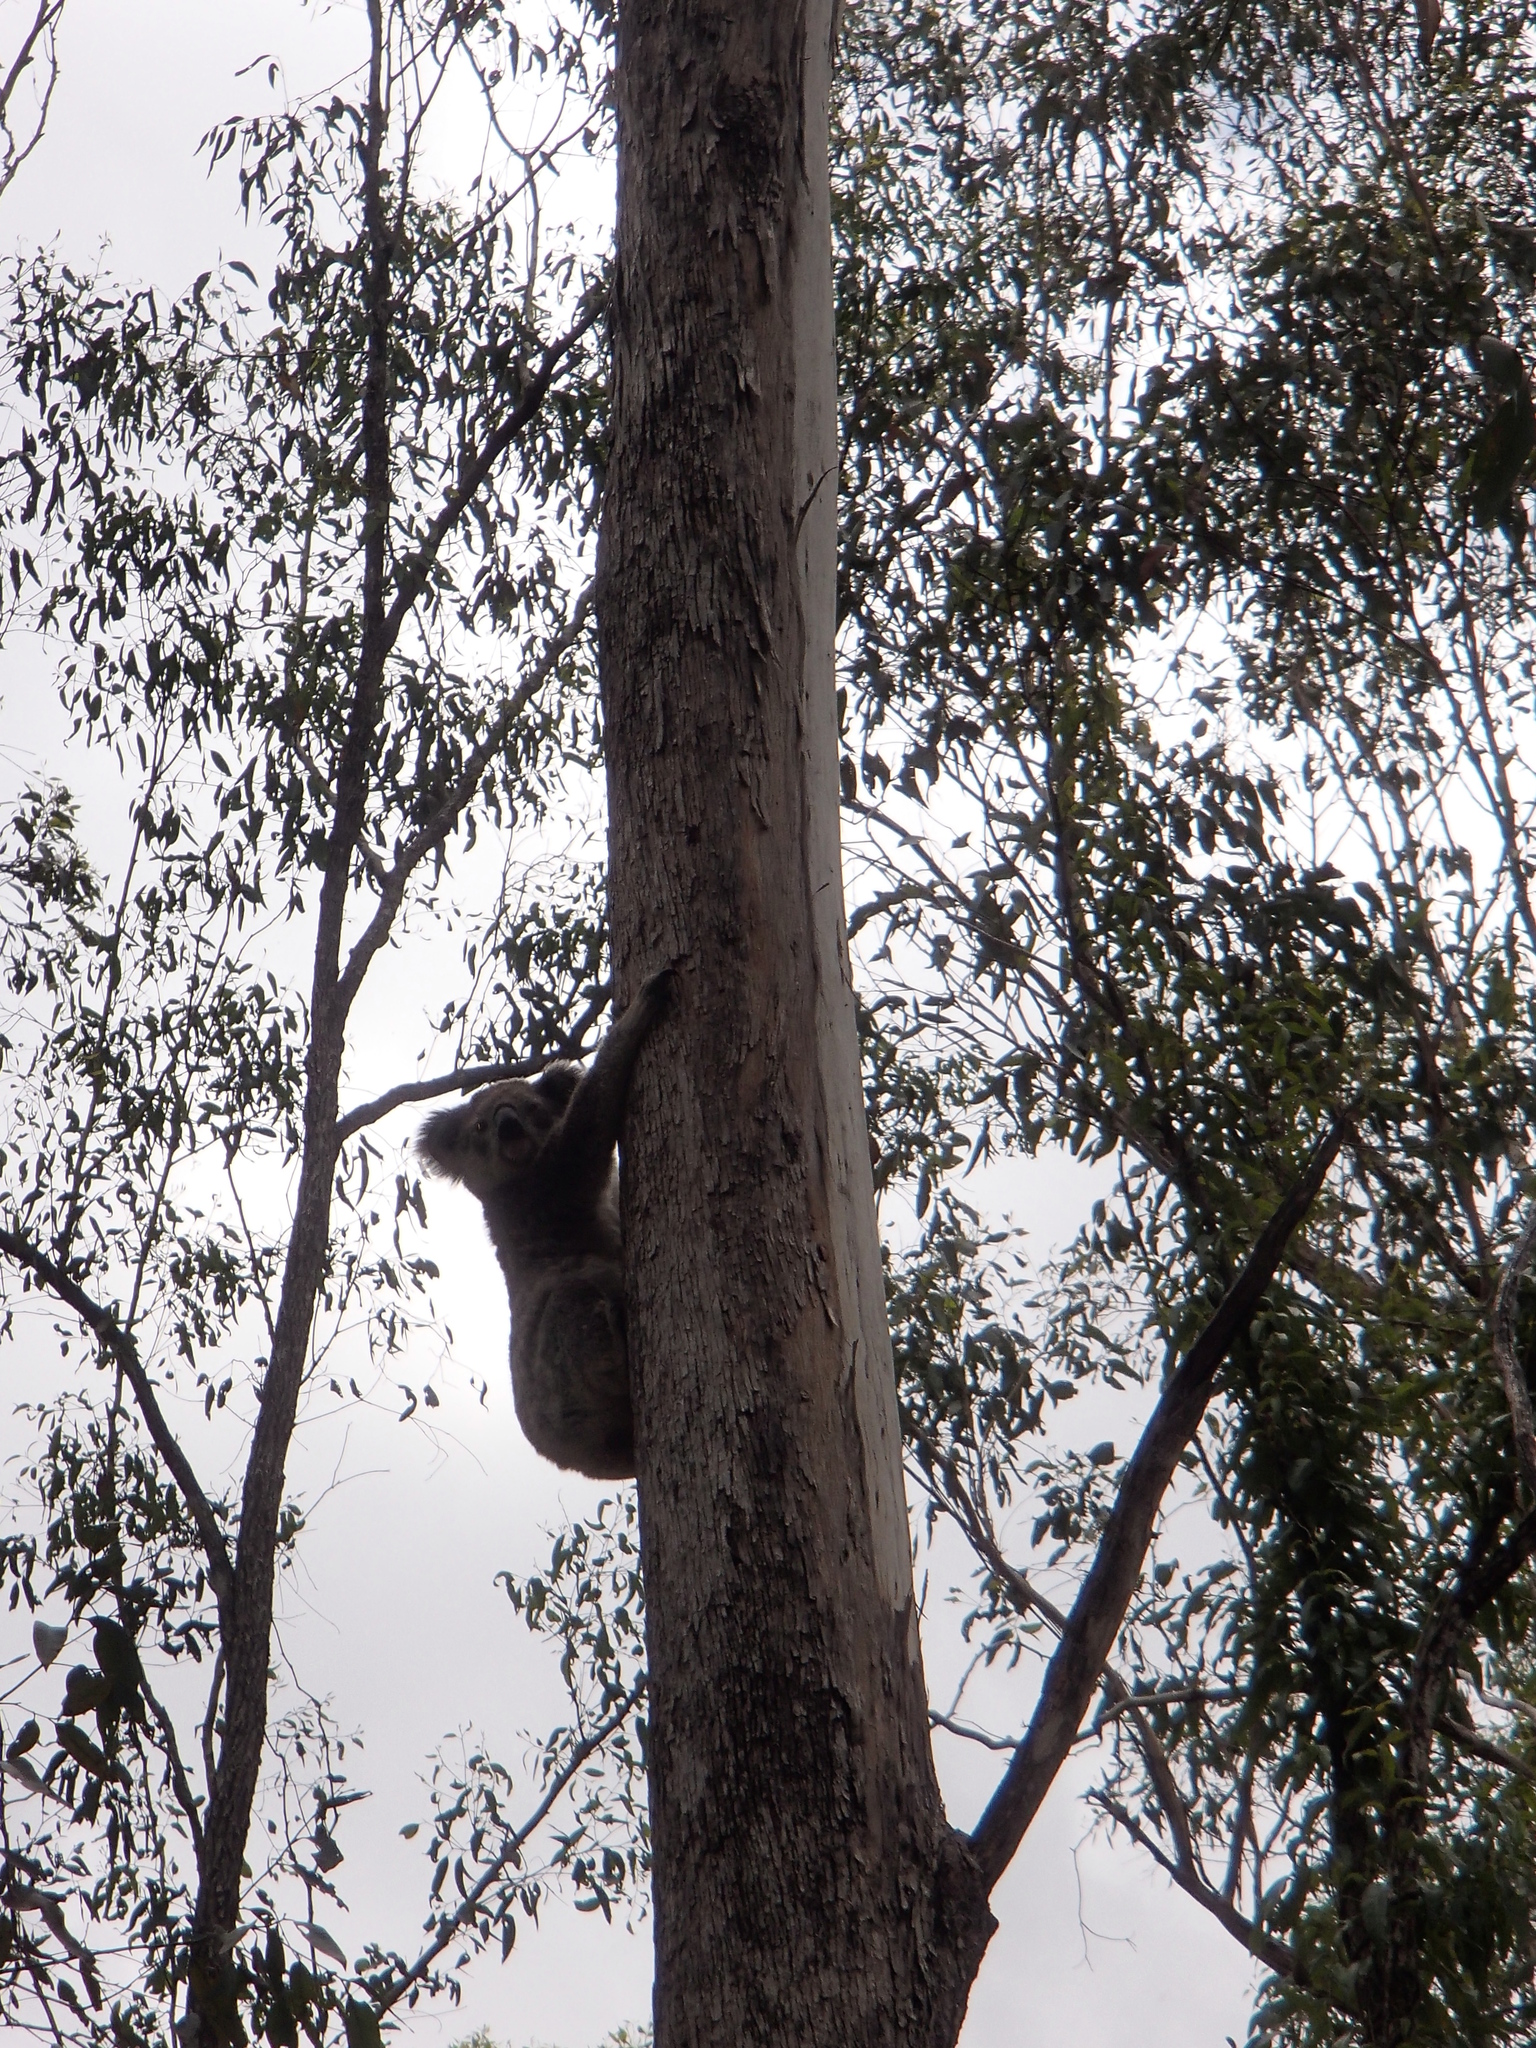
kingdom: Animalia
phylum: Chordata
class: Mammalia
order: Diprotodontia
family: Phascolarctidae
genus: Phascolarctos
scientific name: Phascolarctos cinereus
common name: Koala
